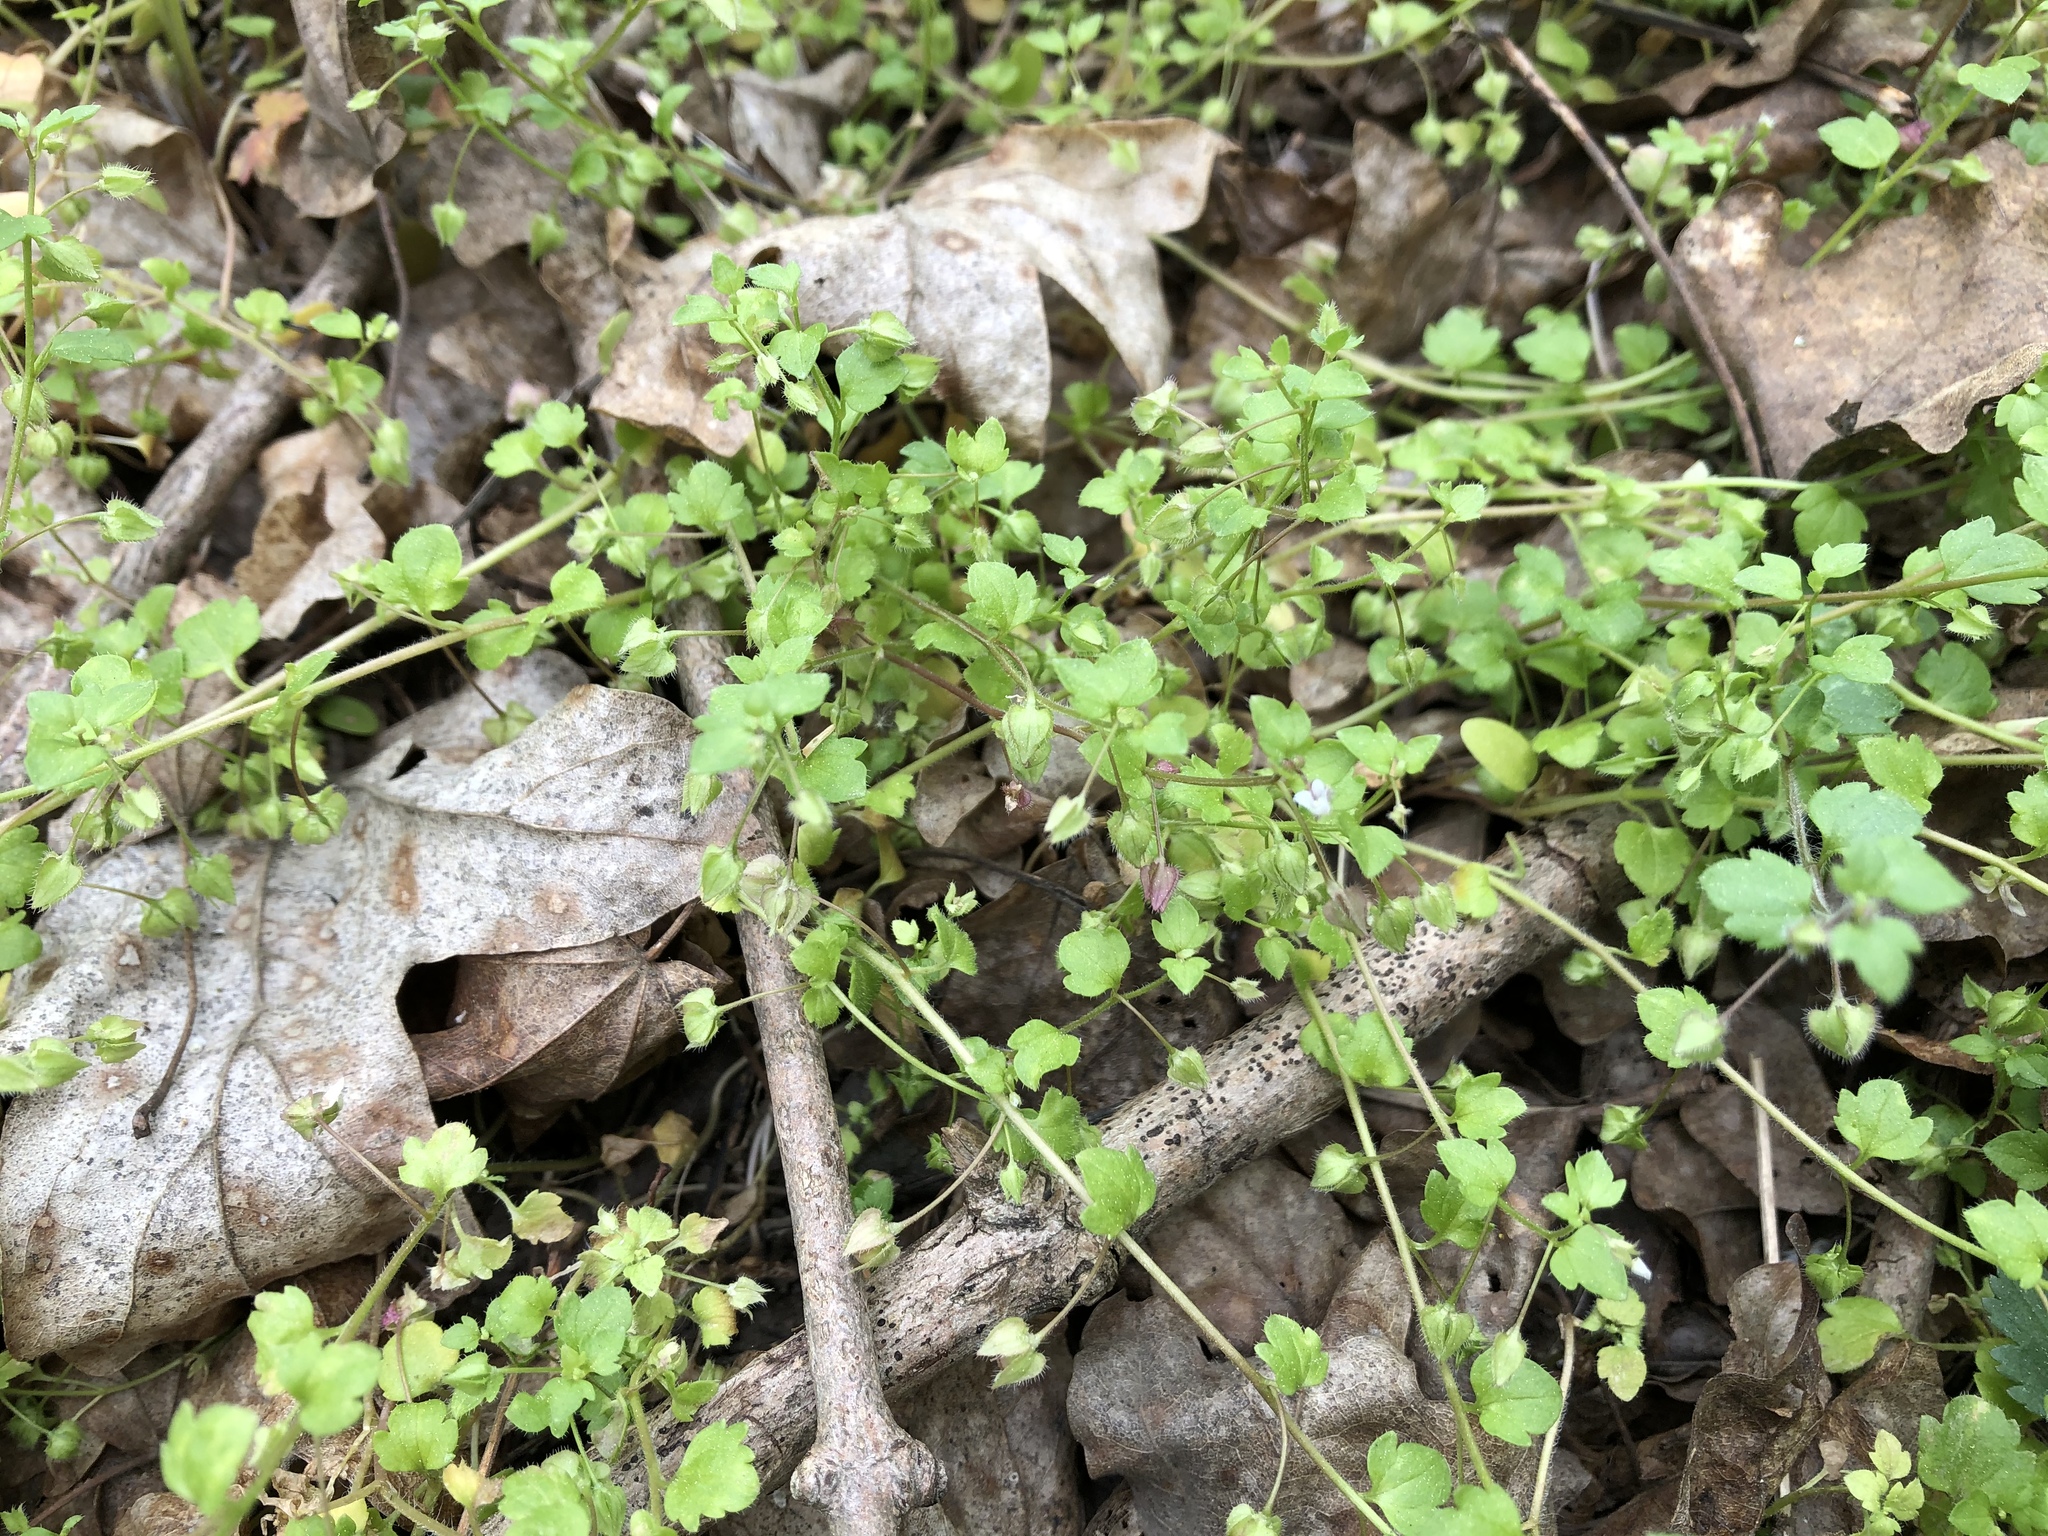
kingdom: Plantae
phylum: Tracheophyta
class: Magnoliopsida
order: Lamiales
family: Plantaginaceae
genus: Veronica
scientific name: Veronica sublobata
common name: False ivy-leaved speedwell
